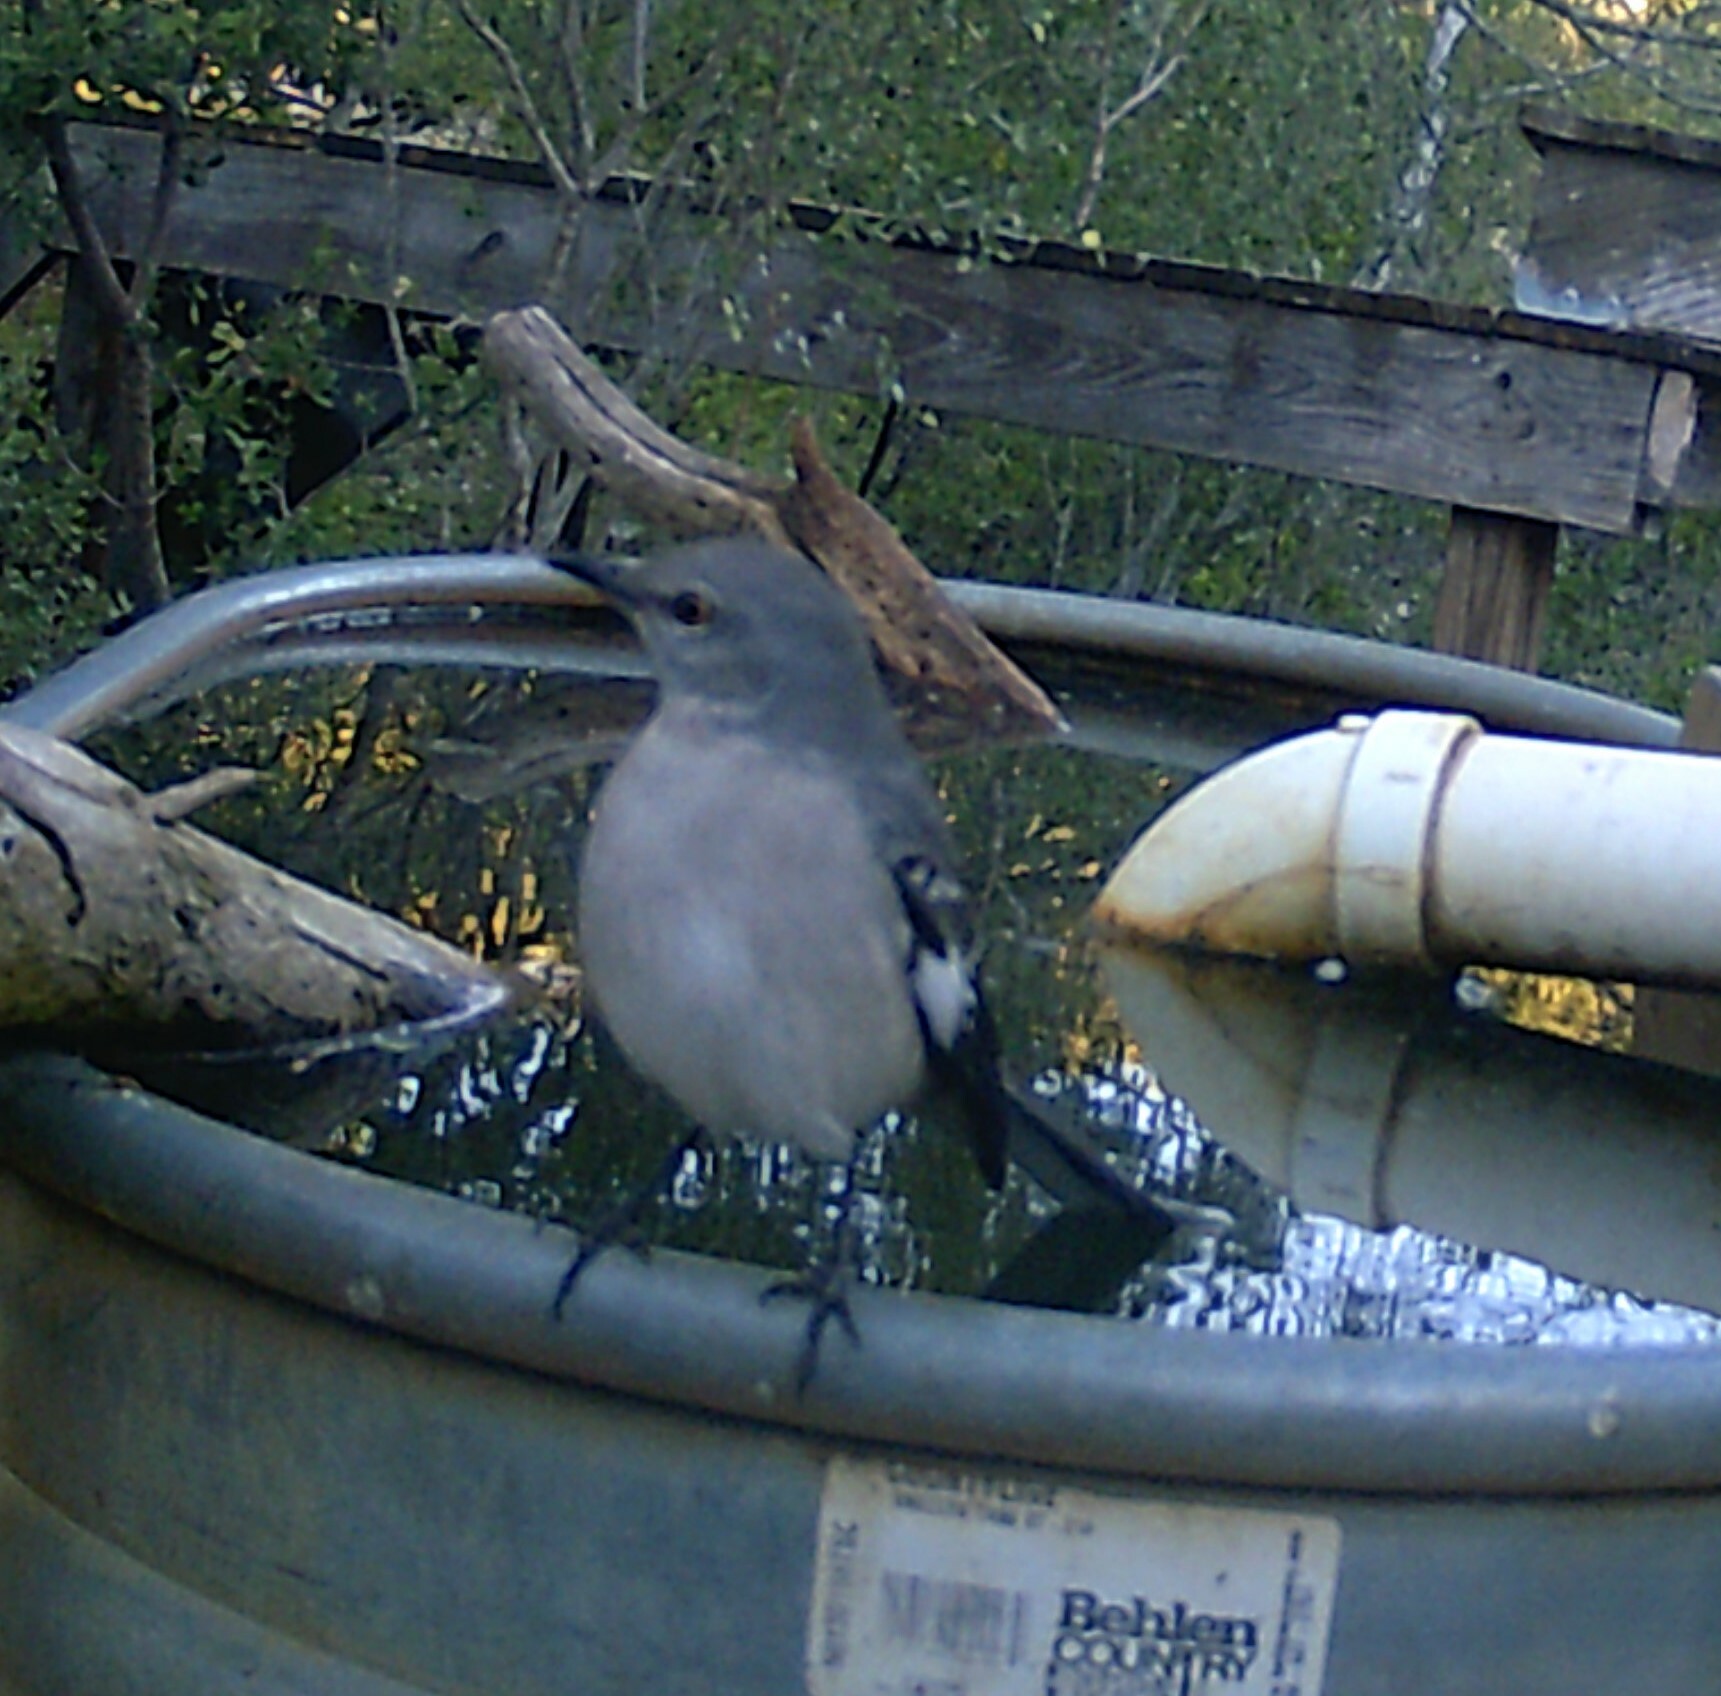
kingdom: Animalia
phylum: Chordata
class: Aves
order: Passeriformes
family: Mimidae
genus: Mimus
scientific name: Mimus polyglottos
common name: Northern mockingbird
